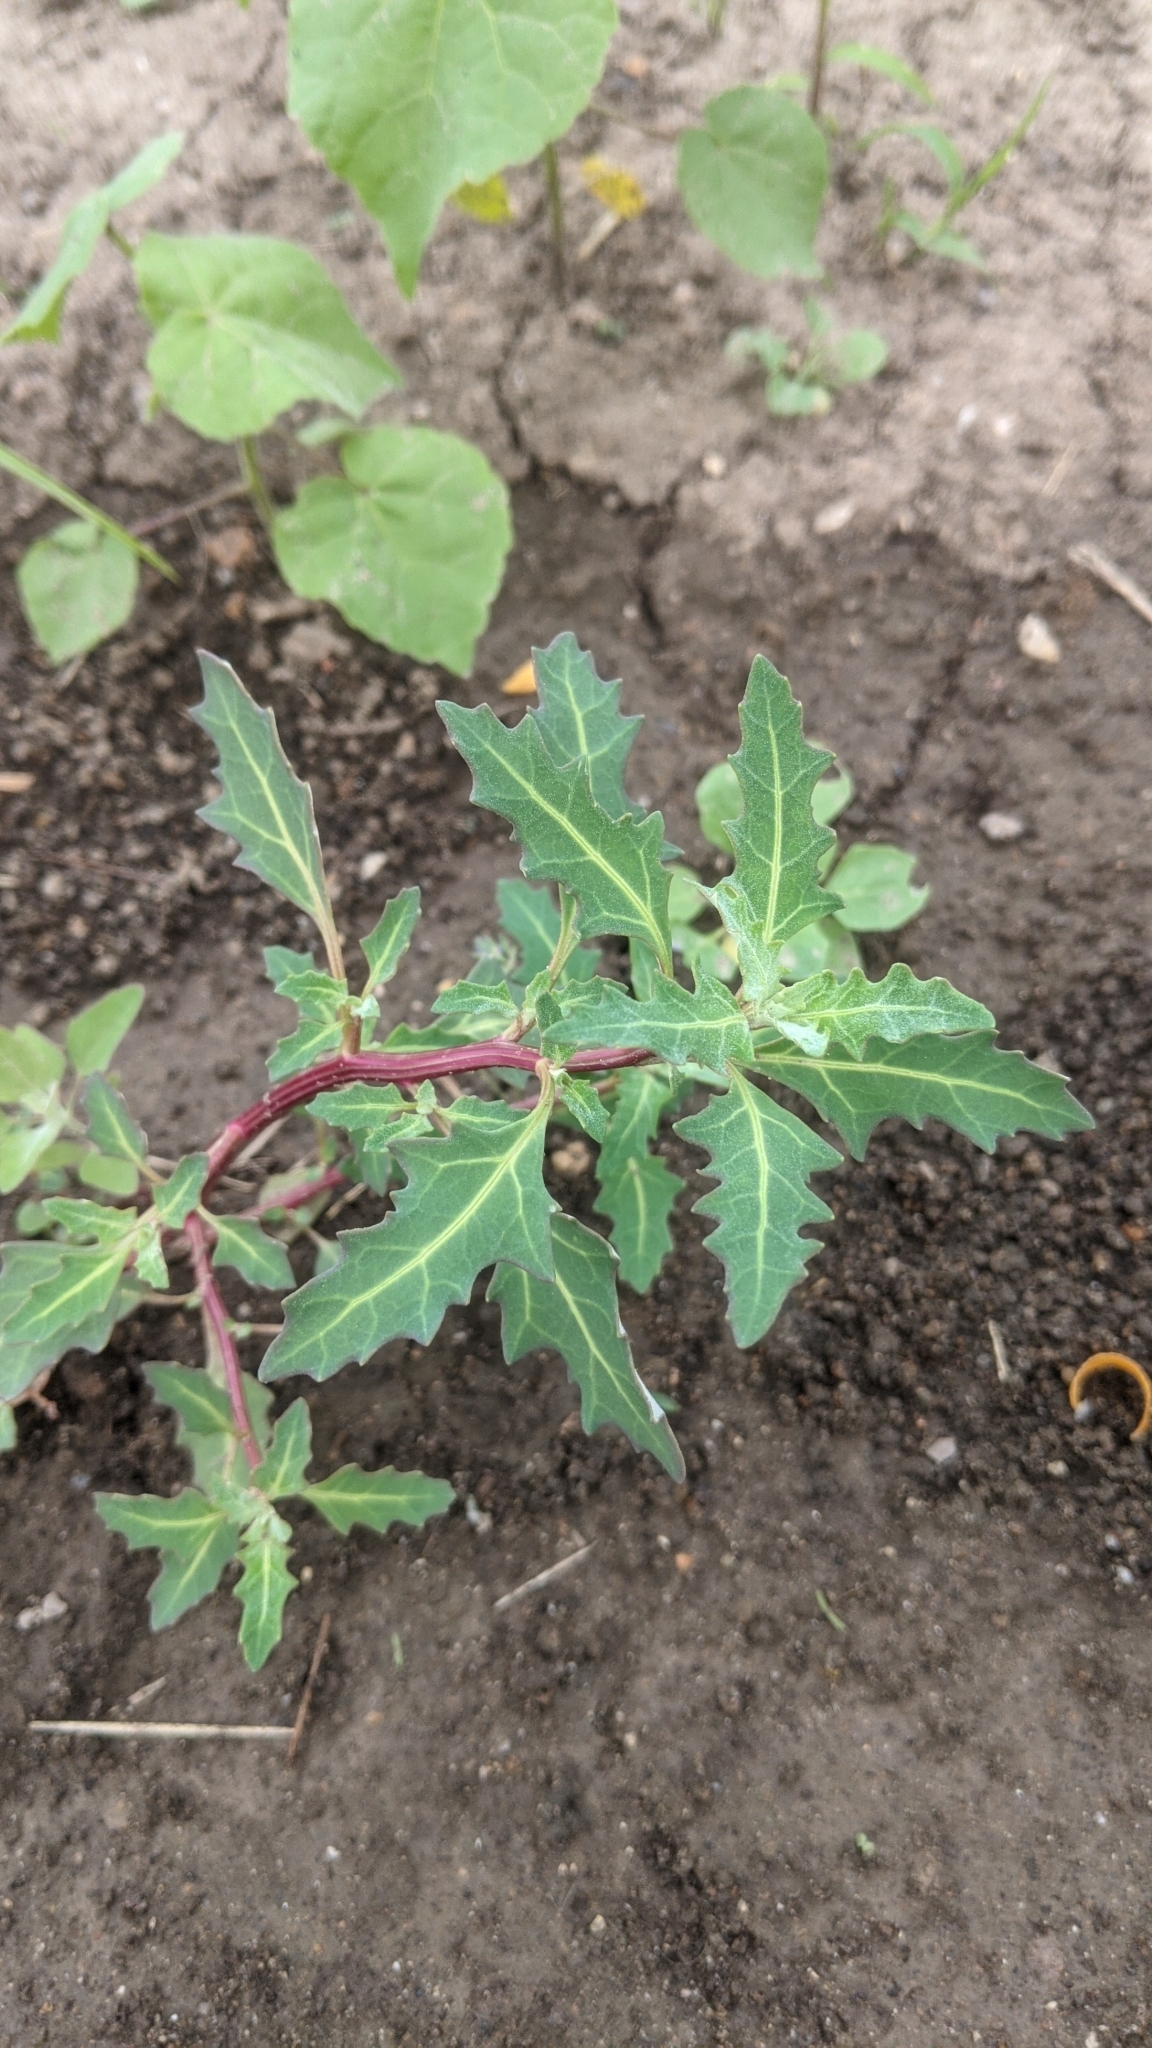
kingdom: Plantae
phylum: Tracheophyta
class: Magnoliopsida
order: Caryophyllales
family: Amaranthaceae
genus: Oxybasis
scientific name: Oxybasis glauca
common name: Glaucous goosefoot
